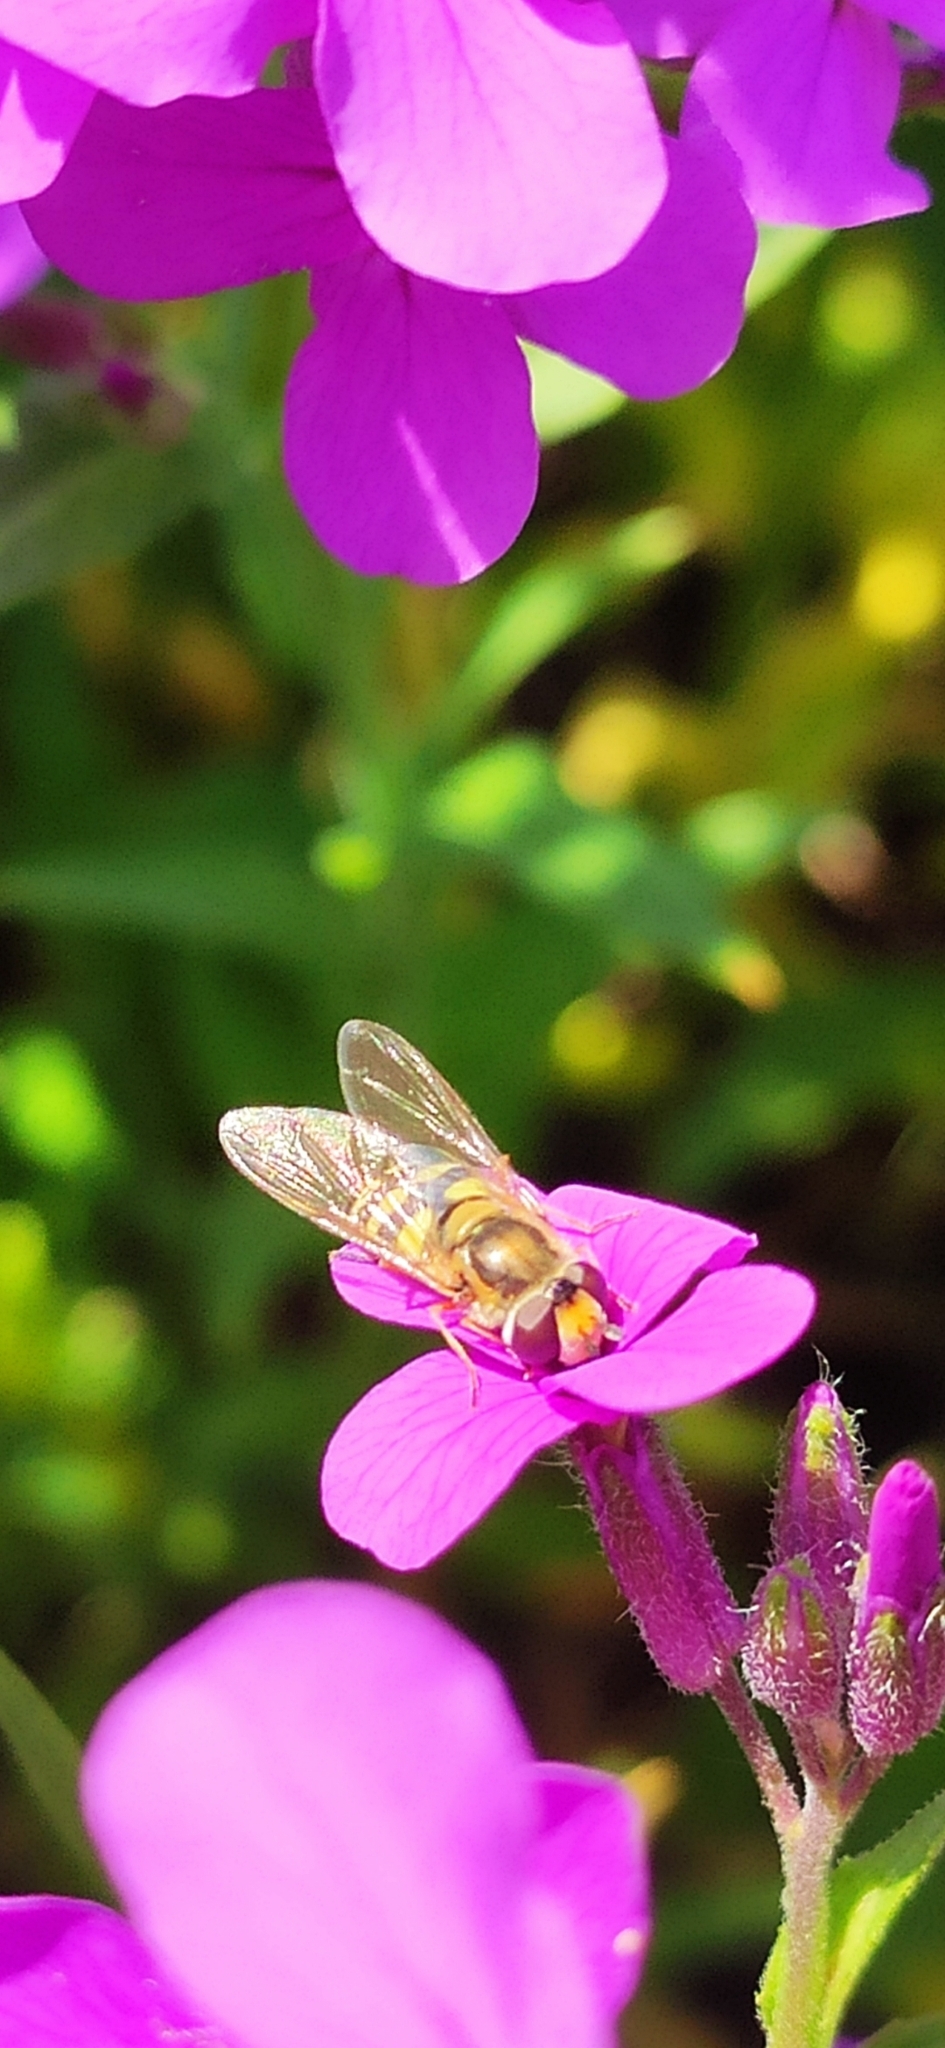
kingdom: Animalia
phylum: Arthropoda
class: Insecta
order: Diptera
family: Syrphidae
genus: Eupeodes
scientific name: Eupeodes corollae
